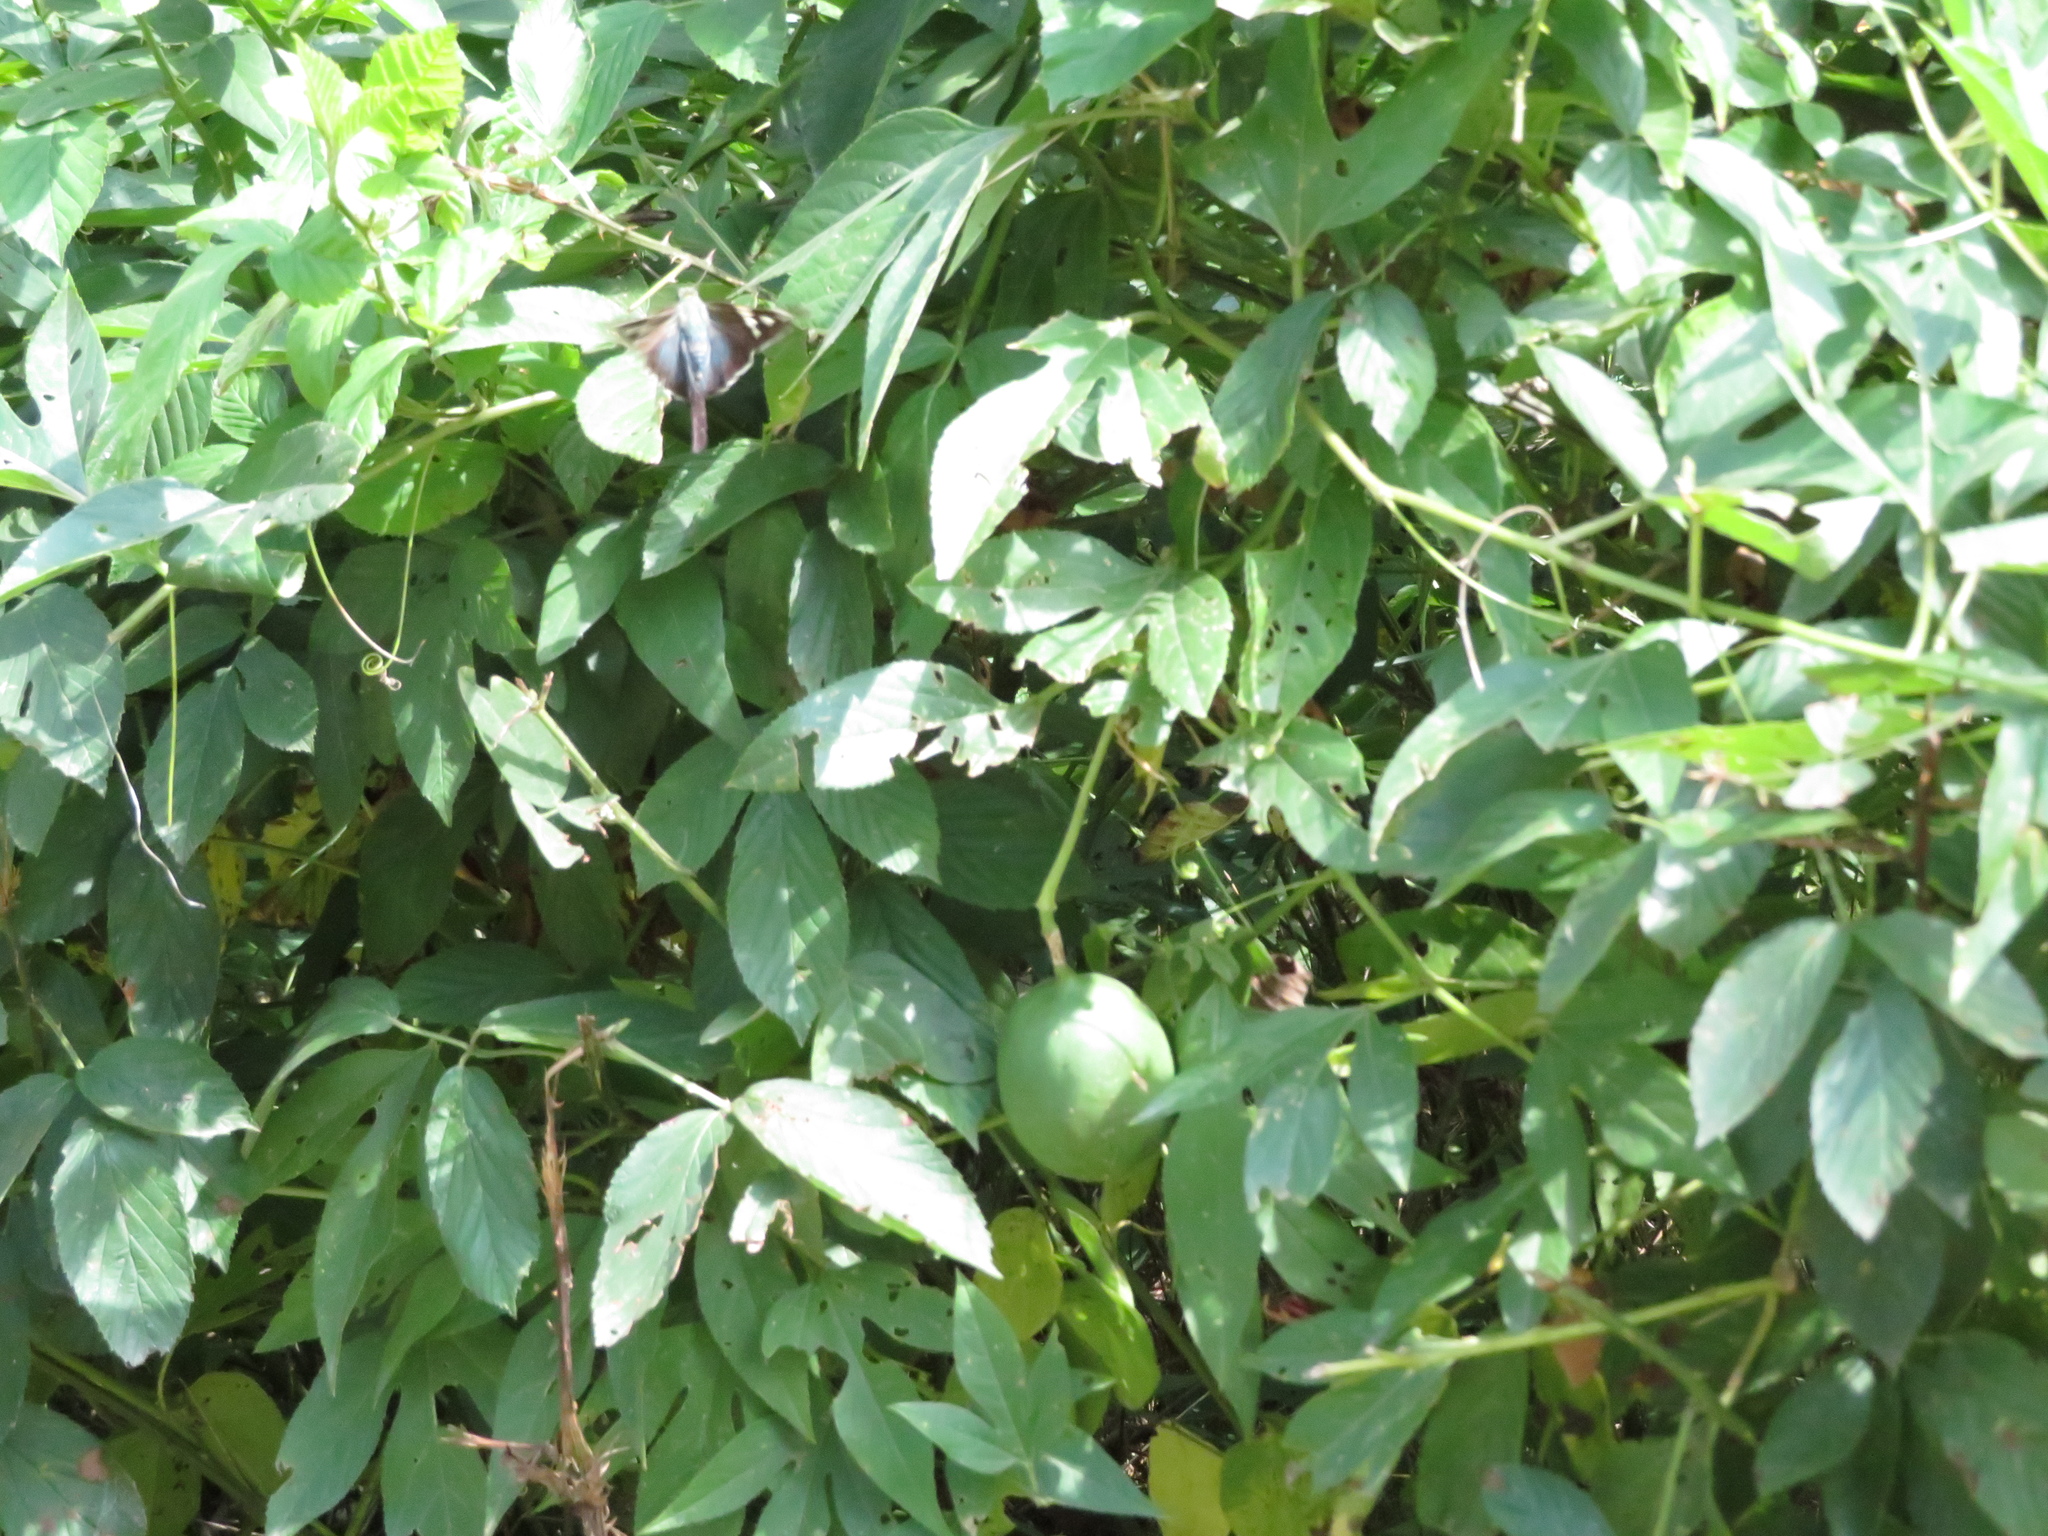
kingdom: Animalia
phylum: Arthropoda
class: Insecta
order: Lepidoptera
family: Hesperiidae
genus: Urbanus
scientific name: Urbanus proteus
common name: Long-tailed skipper
